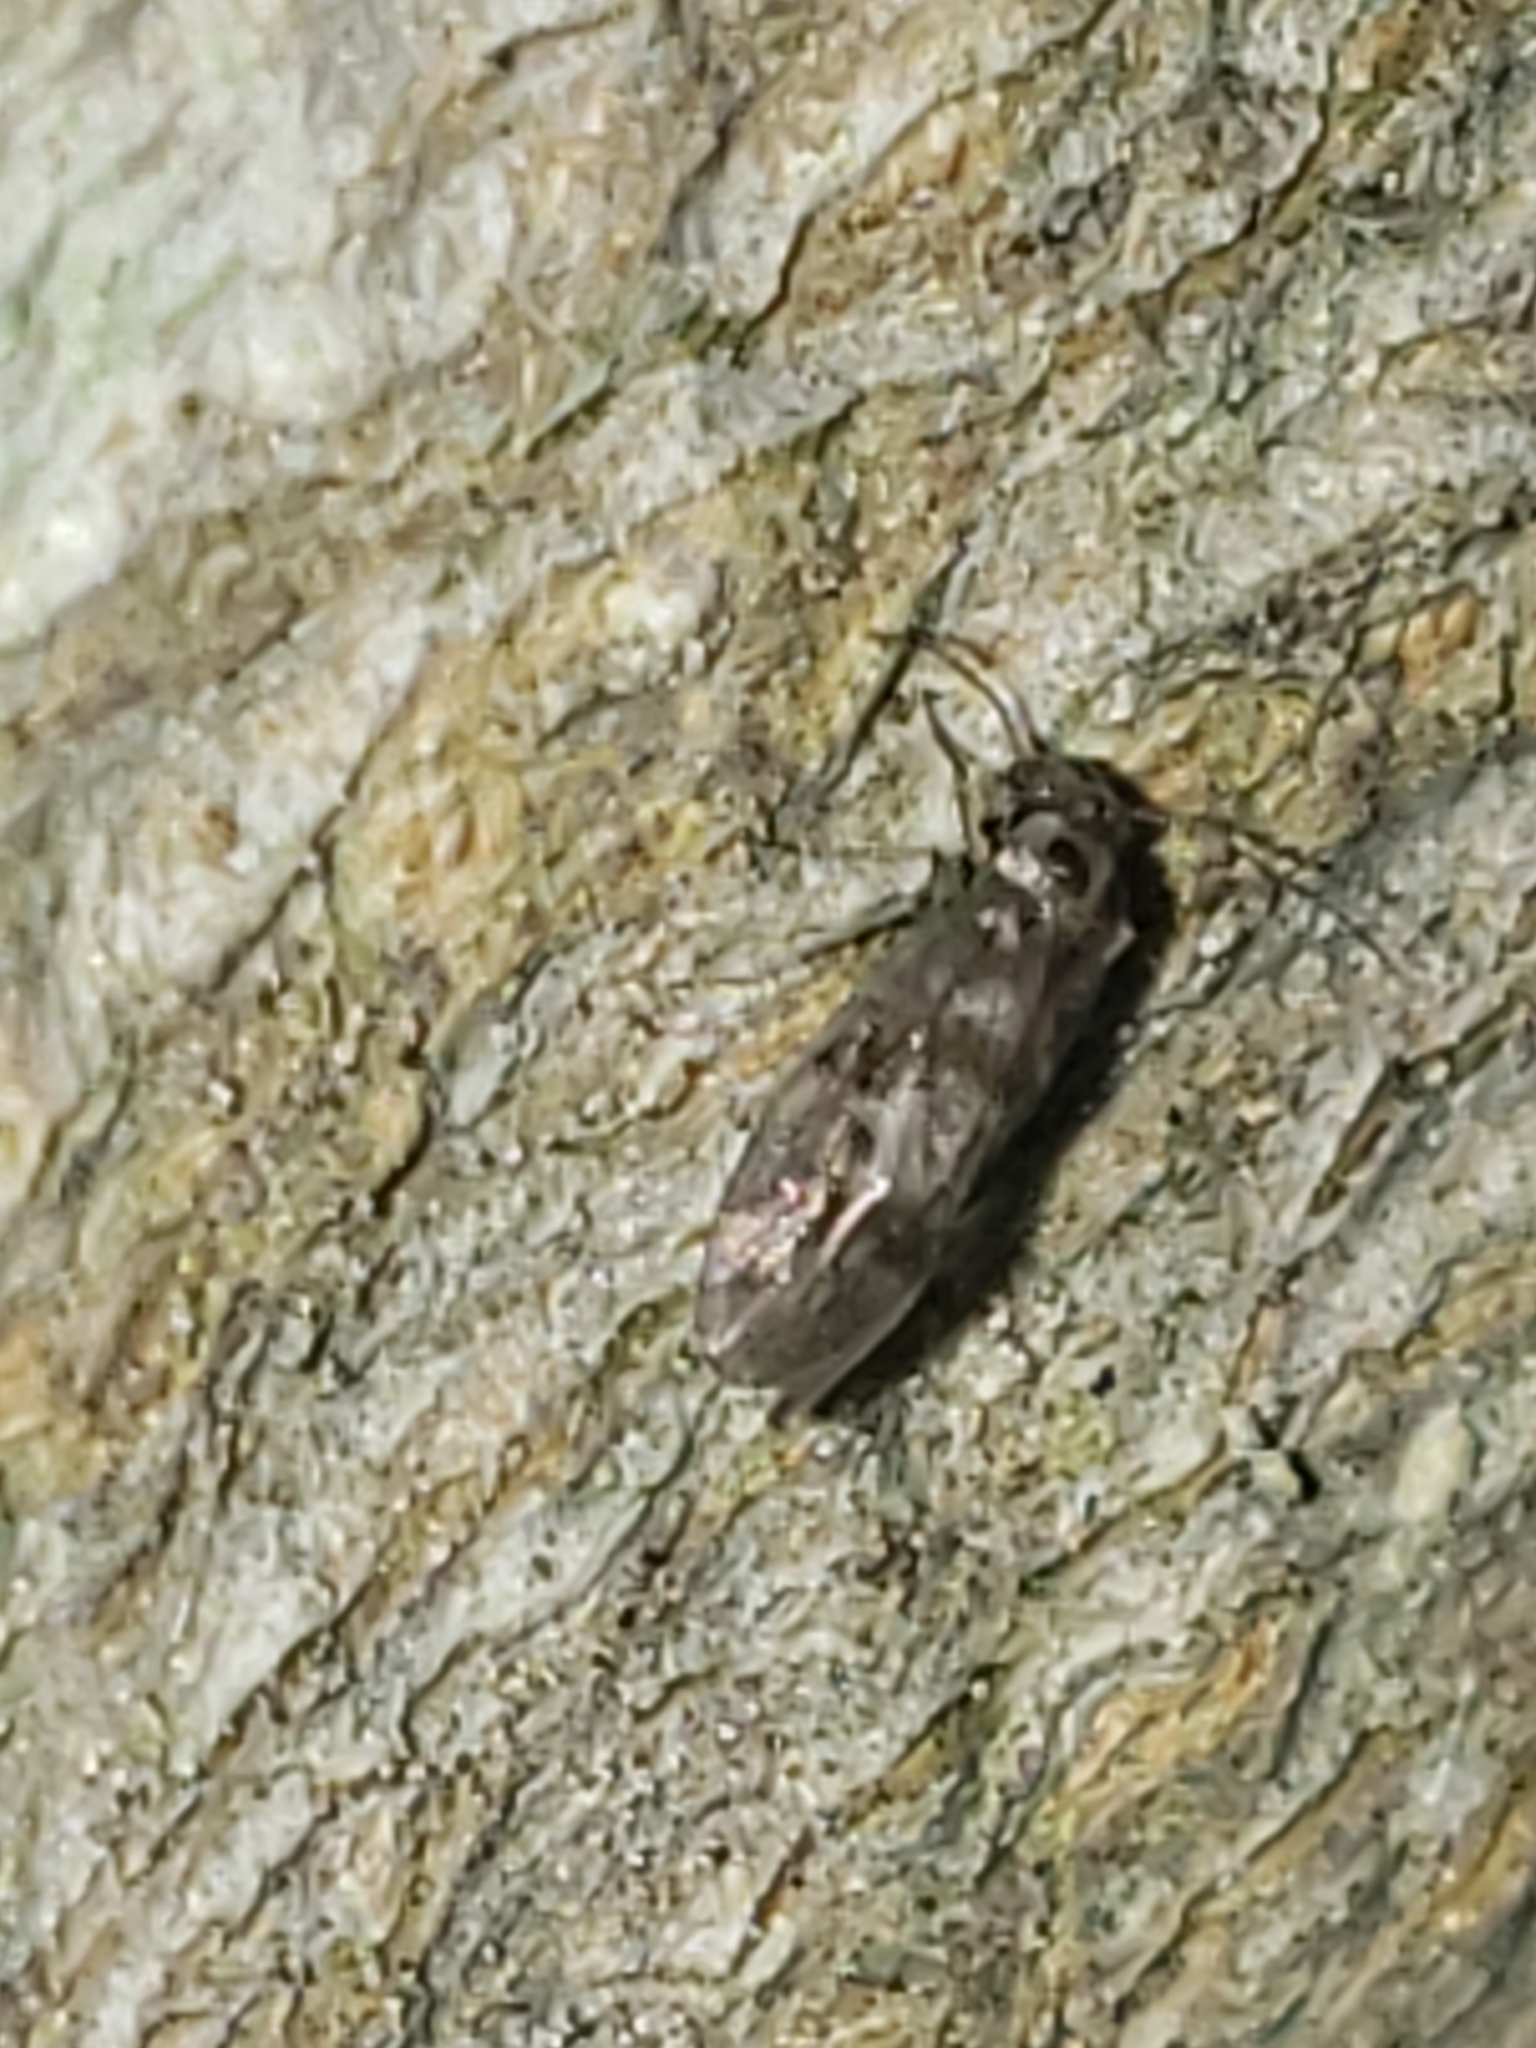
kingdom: Animalia
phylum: Arthropoda
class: Insecta
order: Psocodea
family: Peripsocidae
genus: Peripsocus
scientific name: Peripsocus subfasciatus
